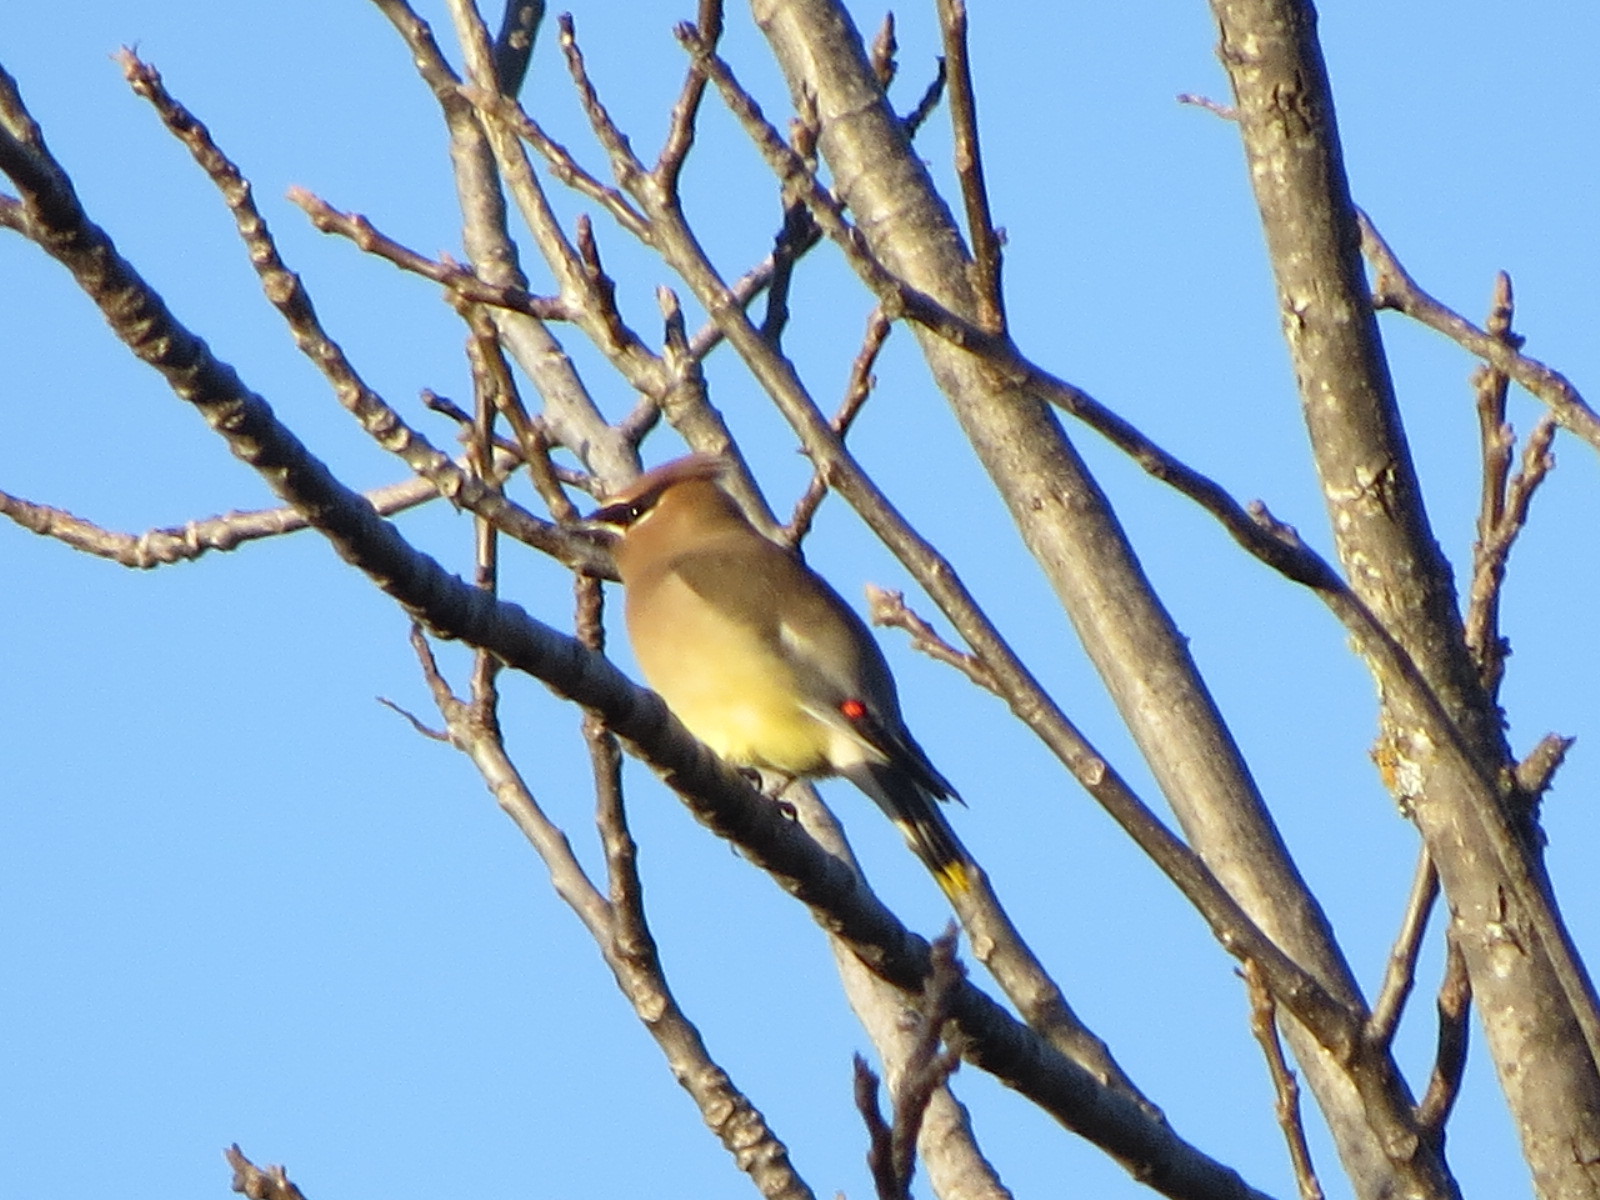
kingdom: Animalia
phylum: Chordata
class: Aves
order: Passeriformes
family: Bombycillidae
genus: Bombycilla
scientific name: Bombycilla cedrorum
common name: Cedar waxwing
